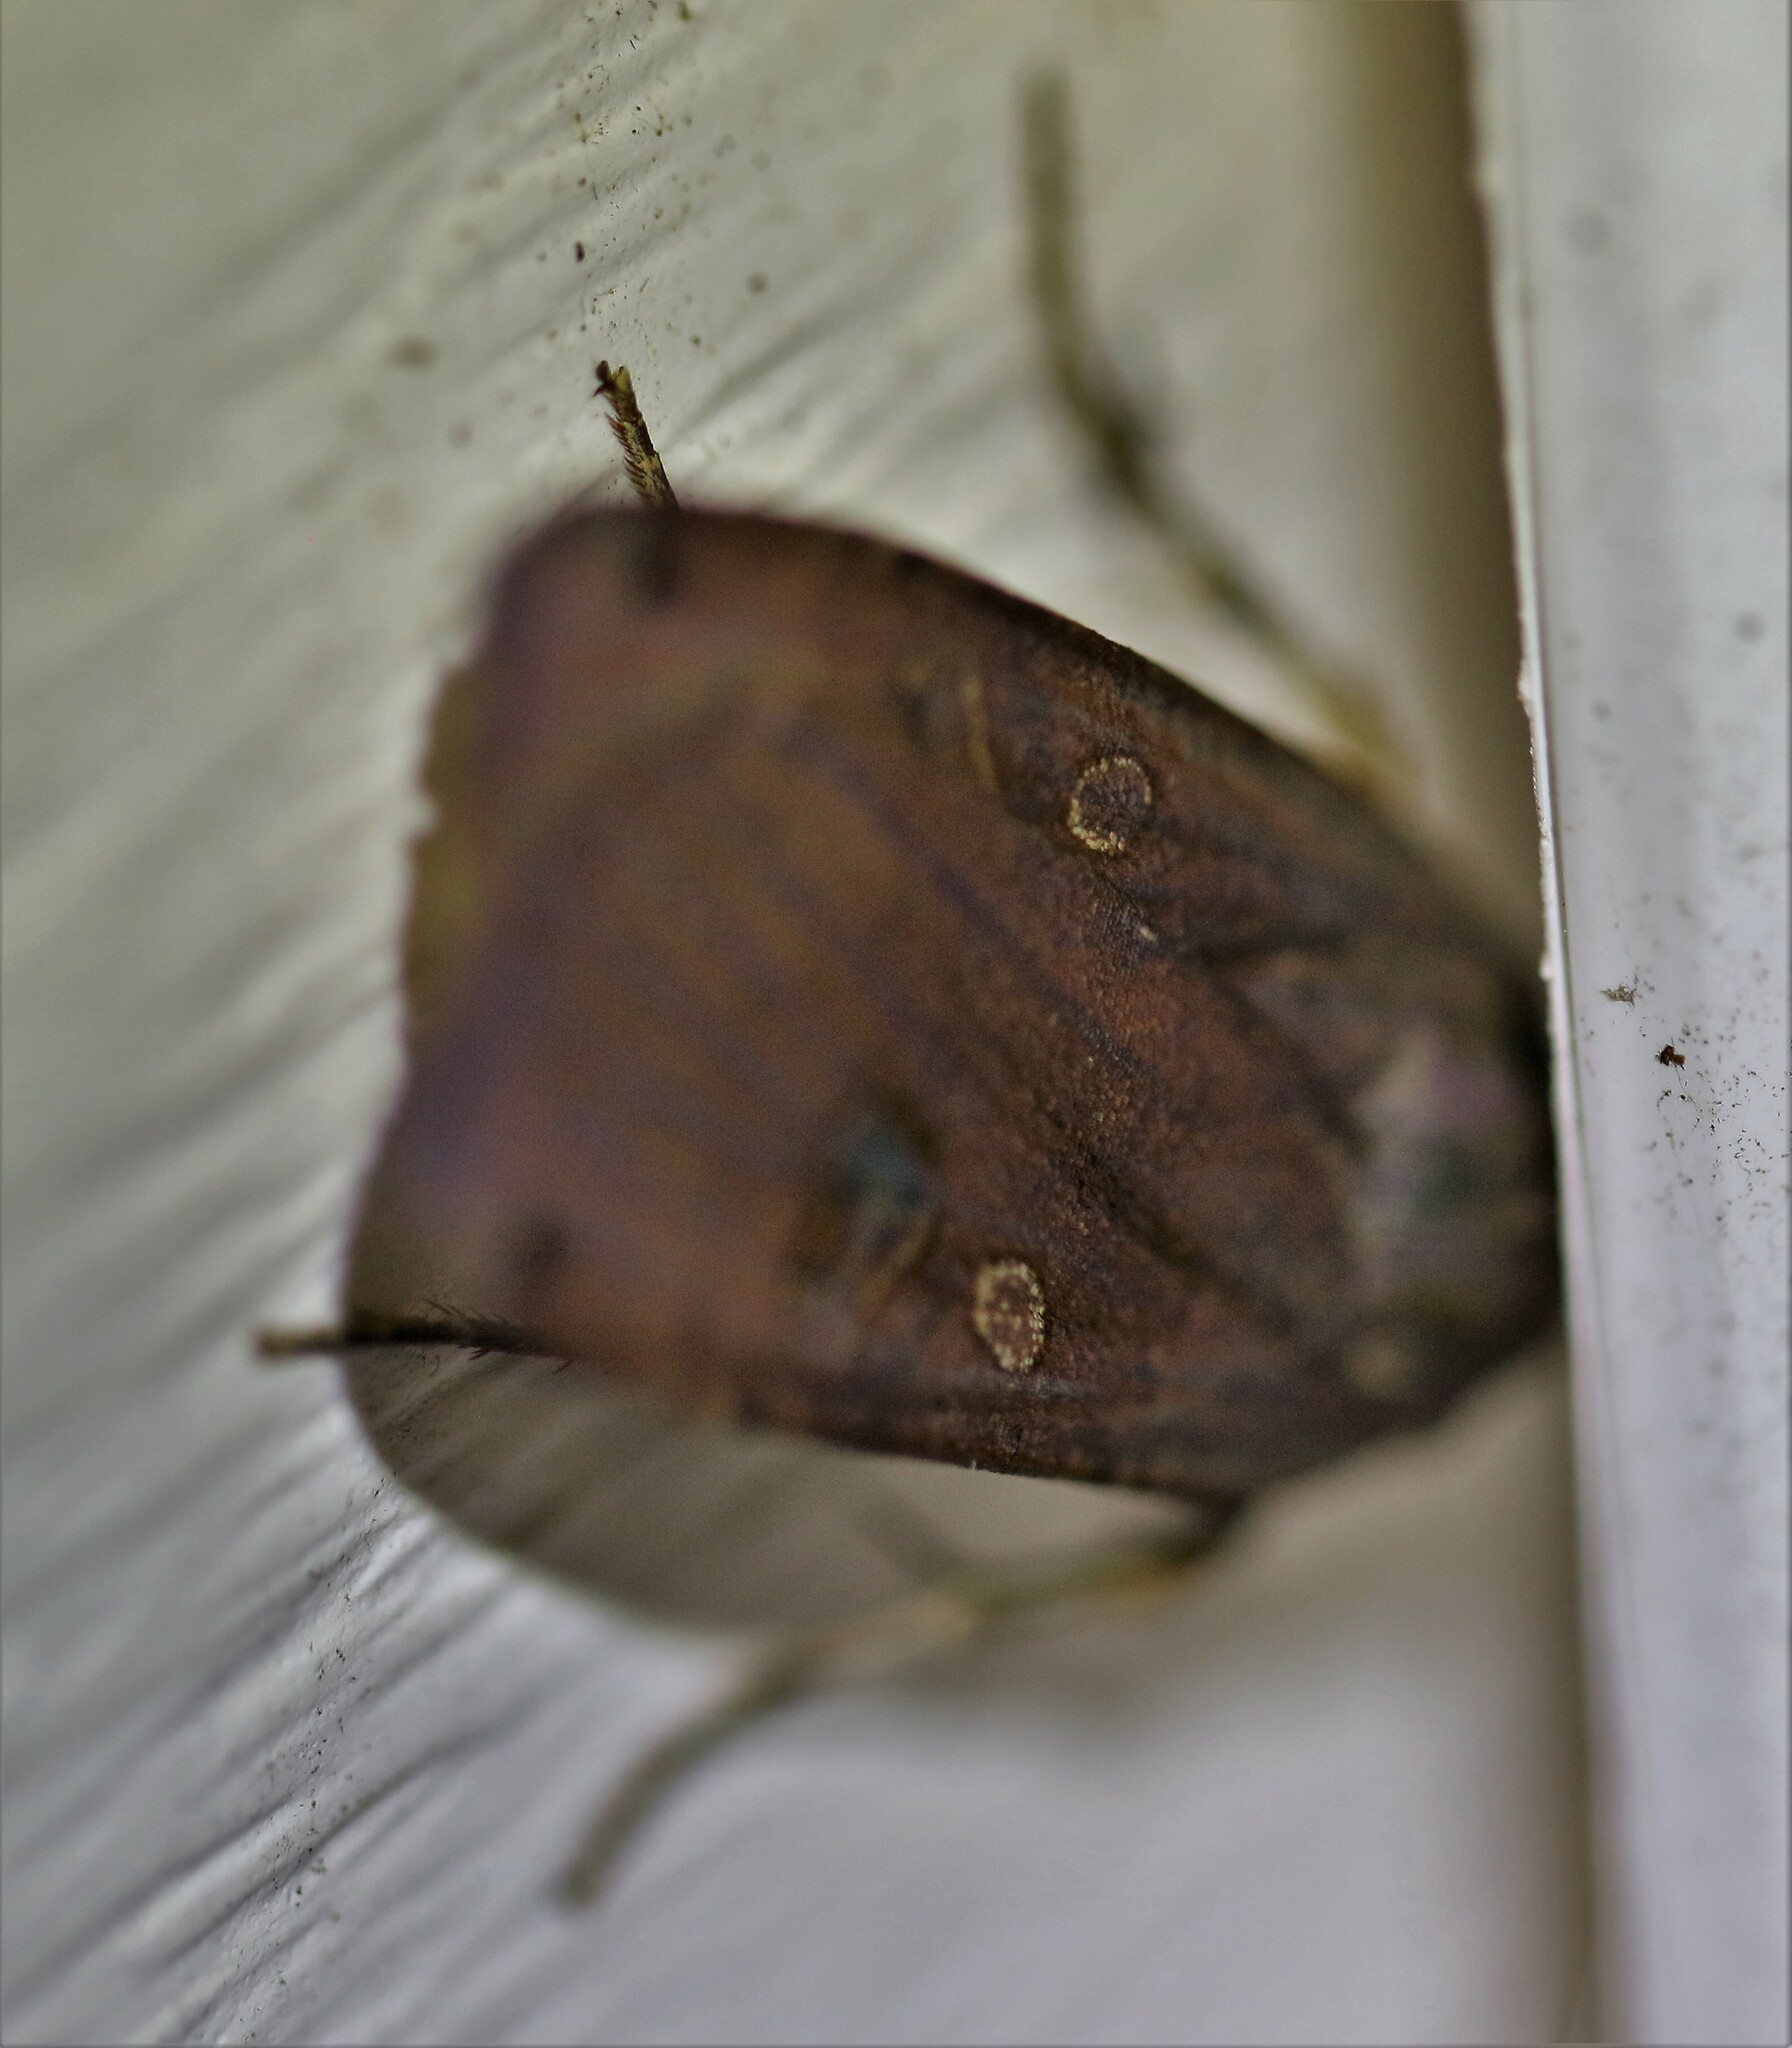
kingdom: Animalia
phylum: Arthropoda
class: Insecta
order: Lepidoptera
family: Noctuidae
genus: Noctua
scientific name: Noctua pronuba
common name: Large yellow underwing
